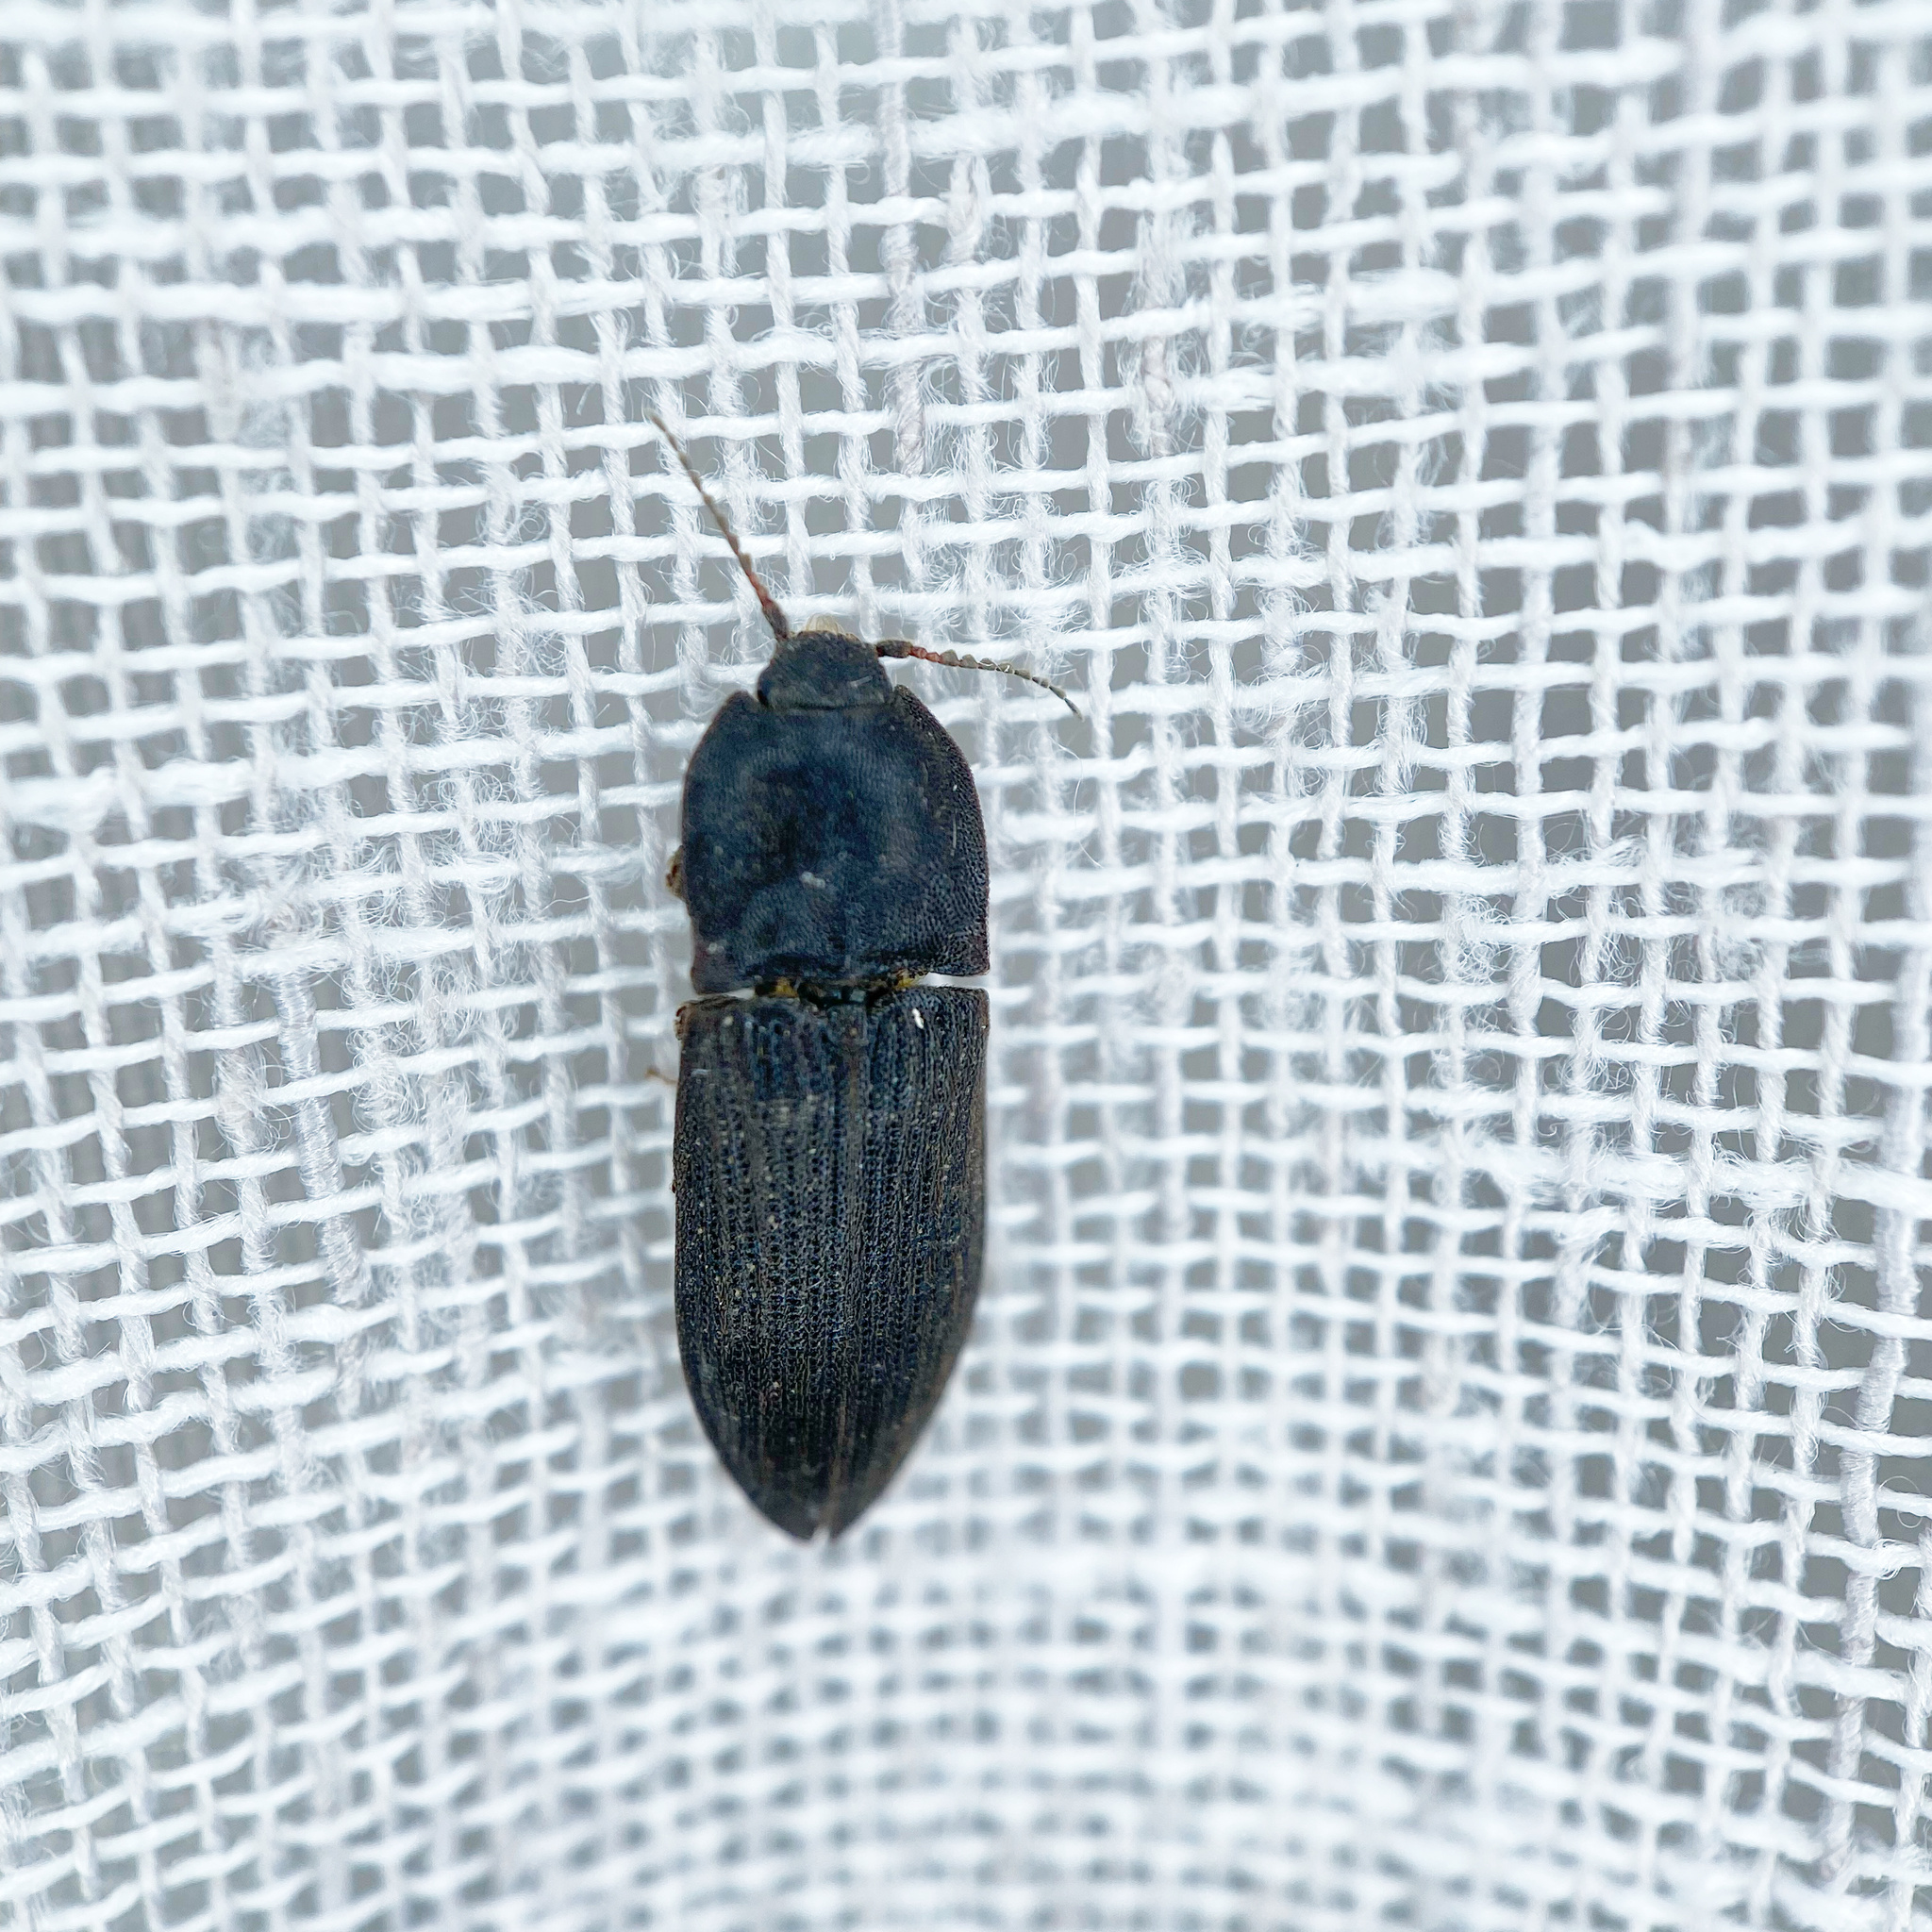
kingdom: Animalia
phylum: Arthropoda
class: Insecta
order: Coleoptera
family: Elateridae
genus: Agrypnus
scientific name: Agrypnus
